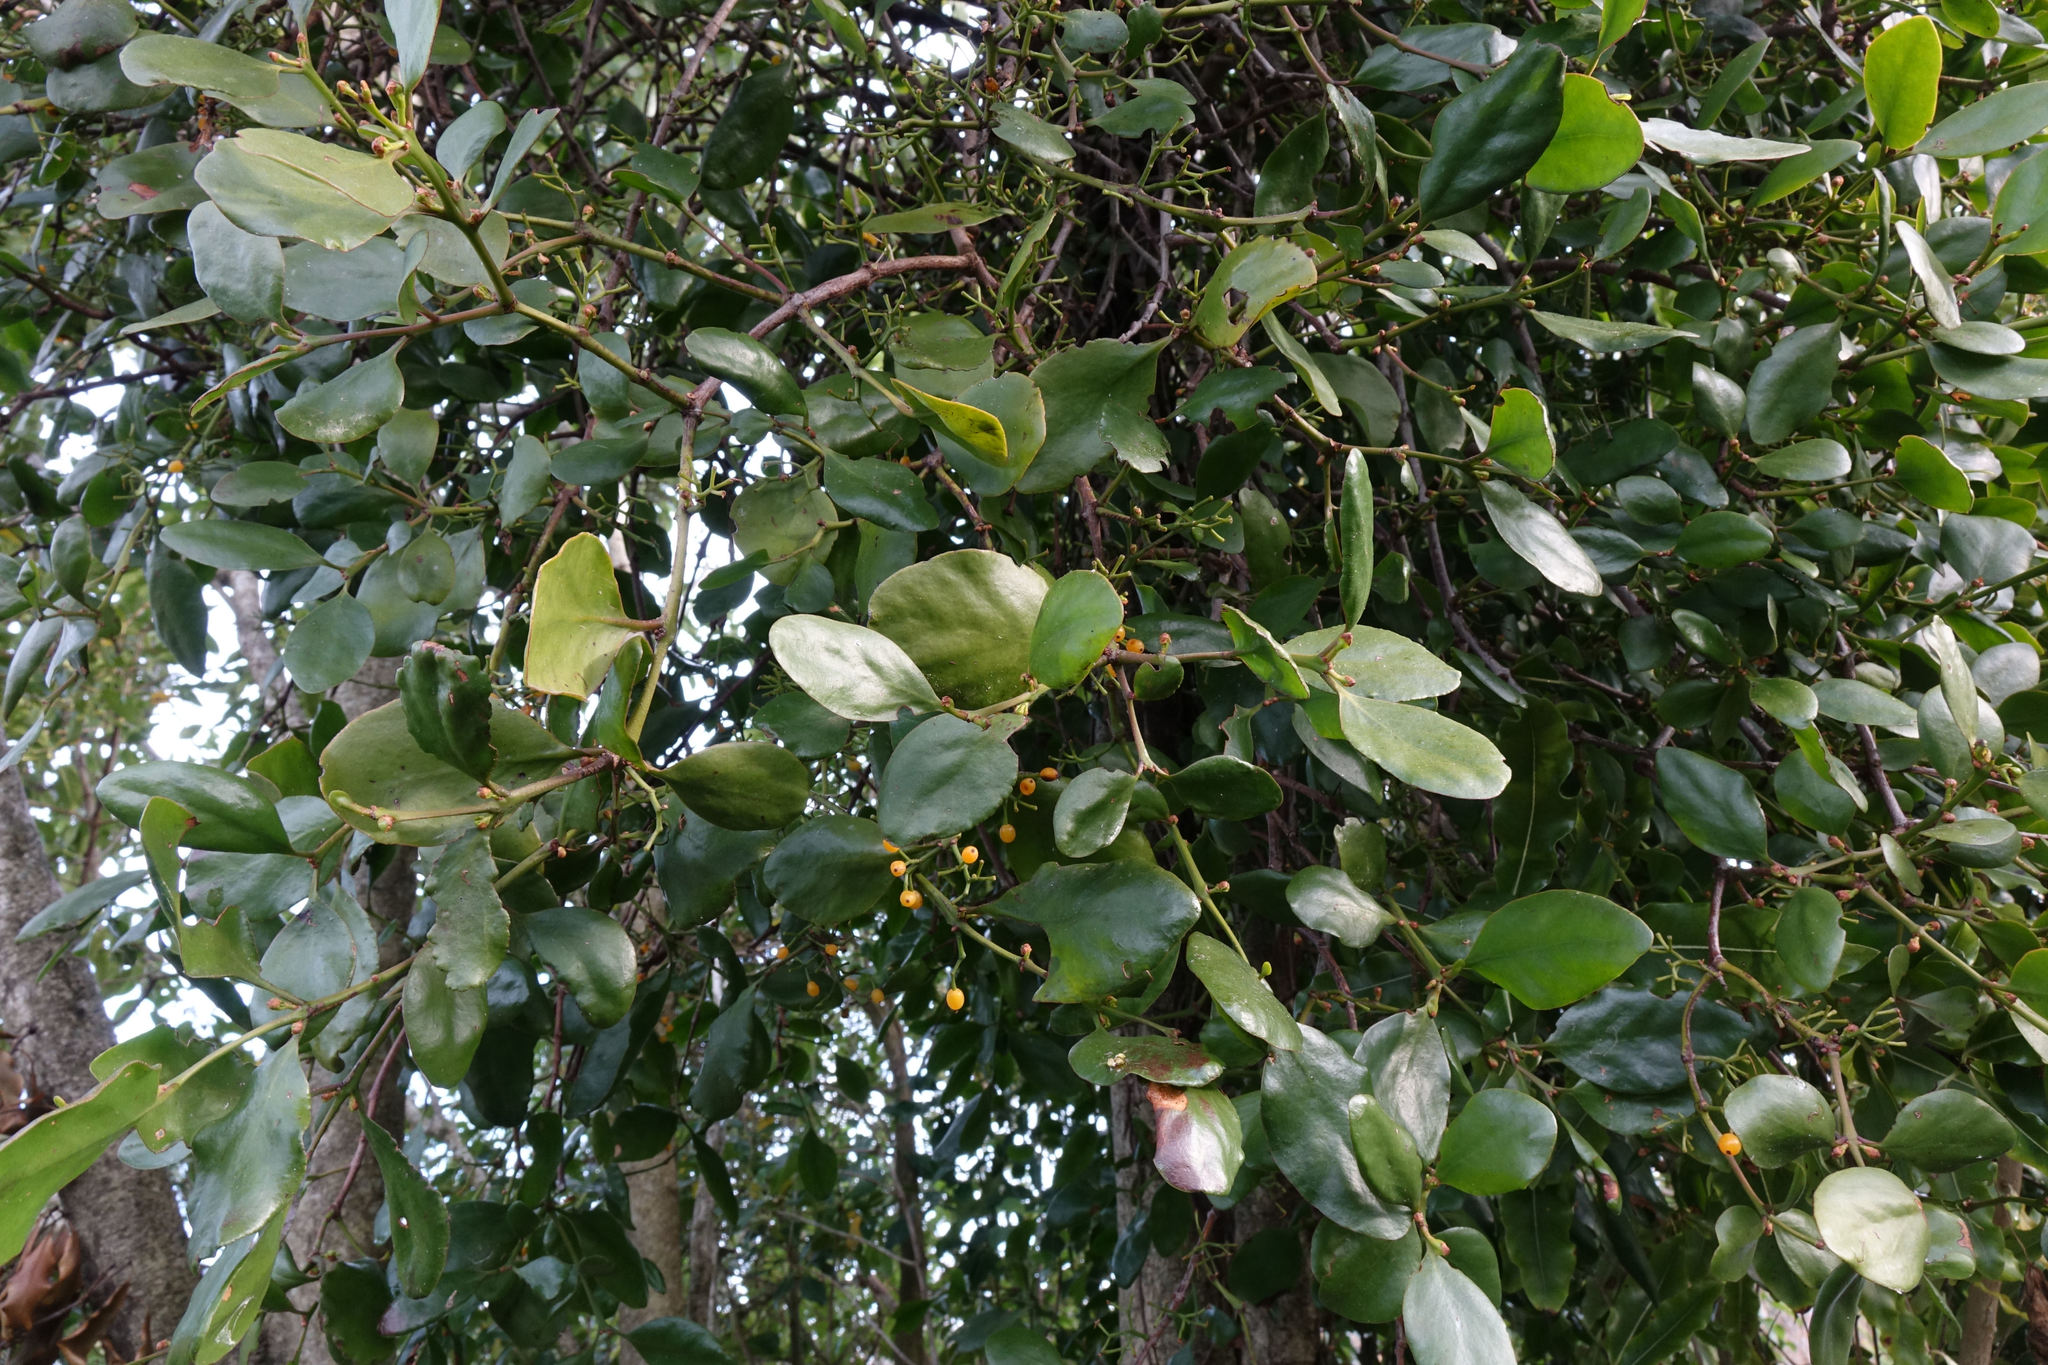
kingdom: Plantae
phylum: Tracheophyta
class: Magnoliopsida
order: Santalales
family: Loranthaceae
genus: Ileostylus
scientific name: Ileostylus micranthus
